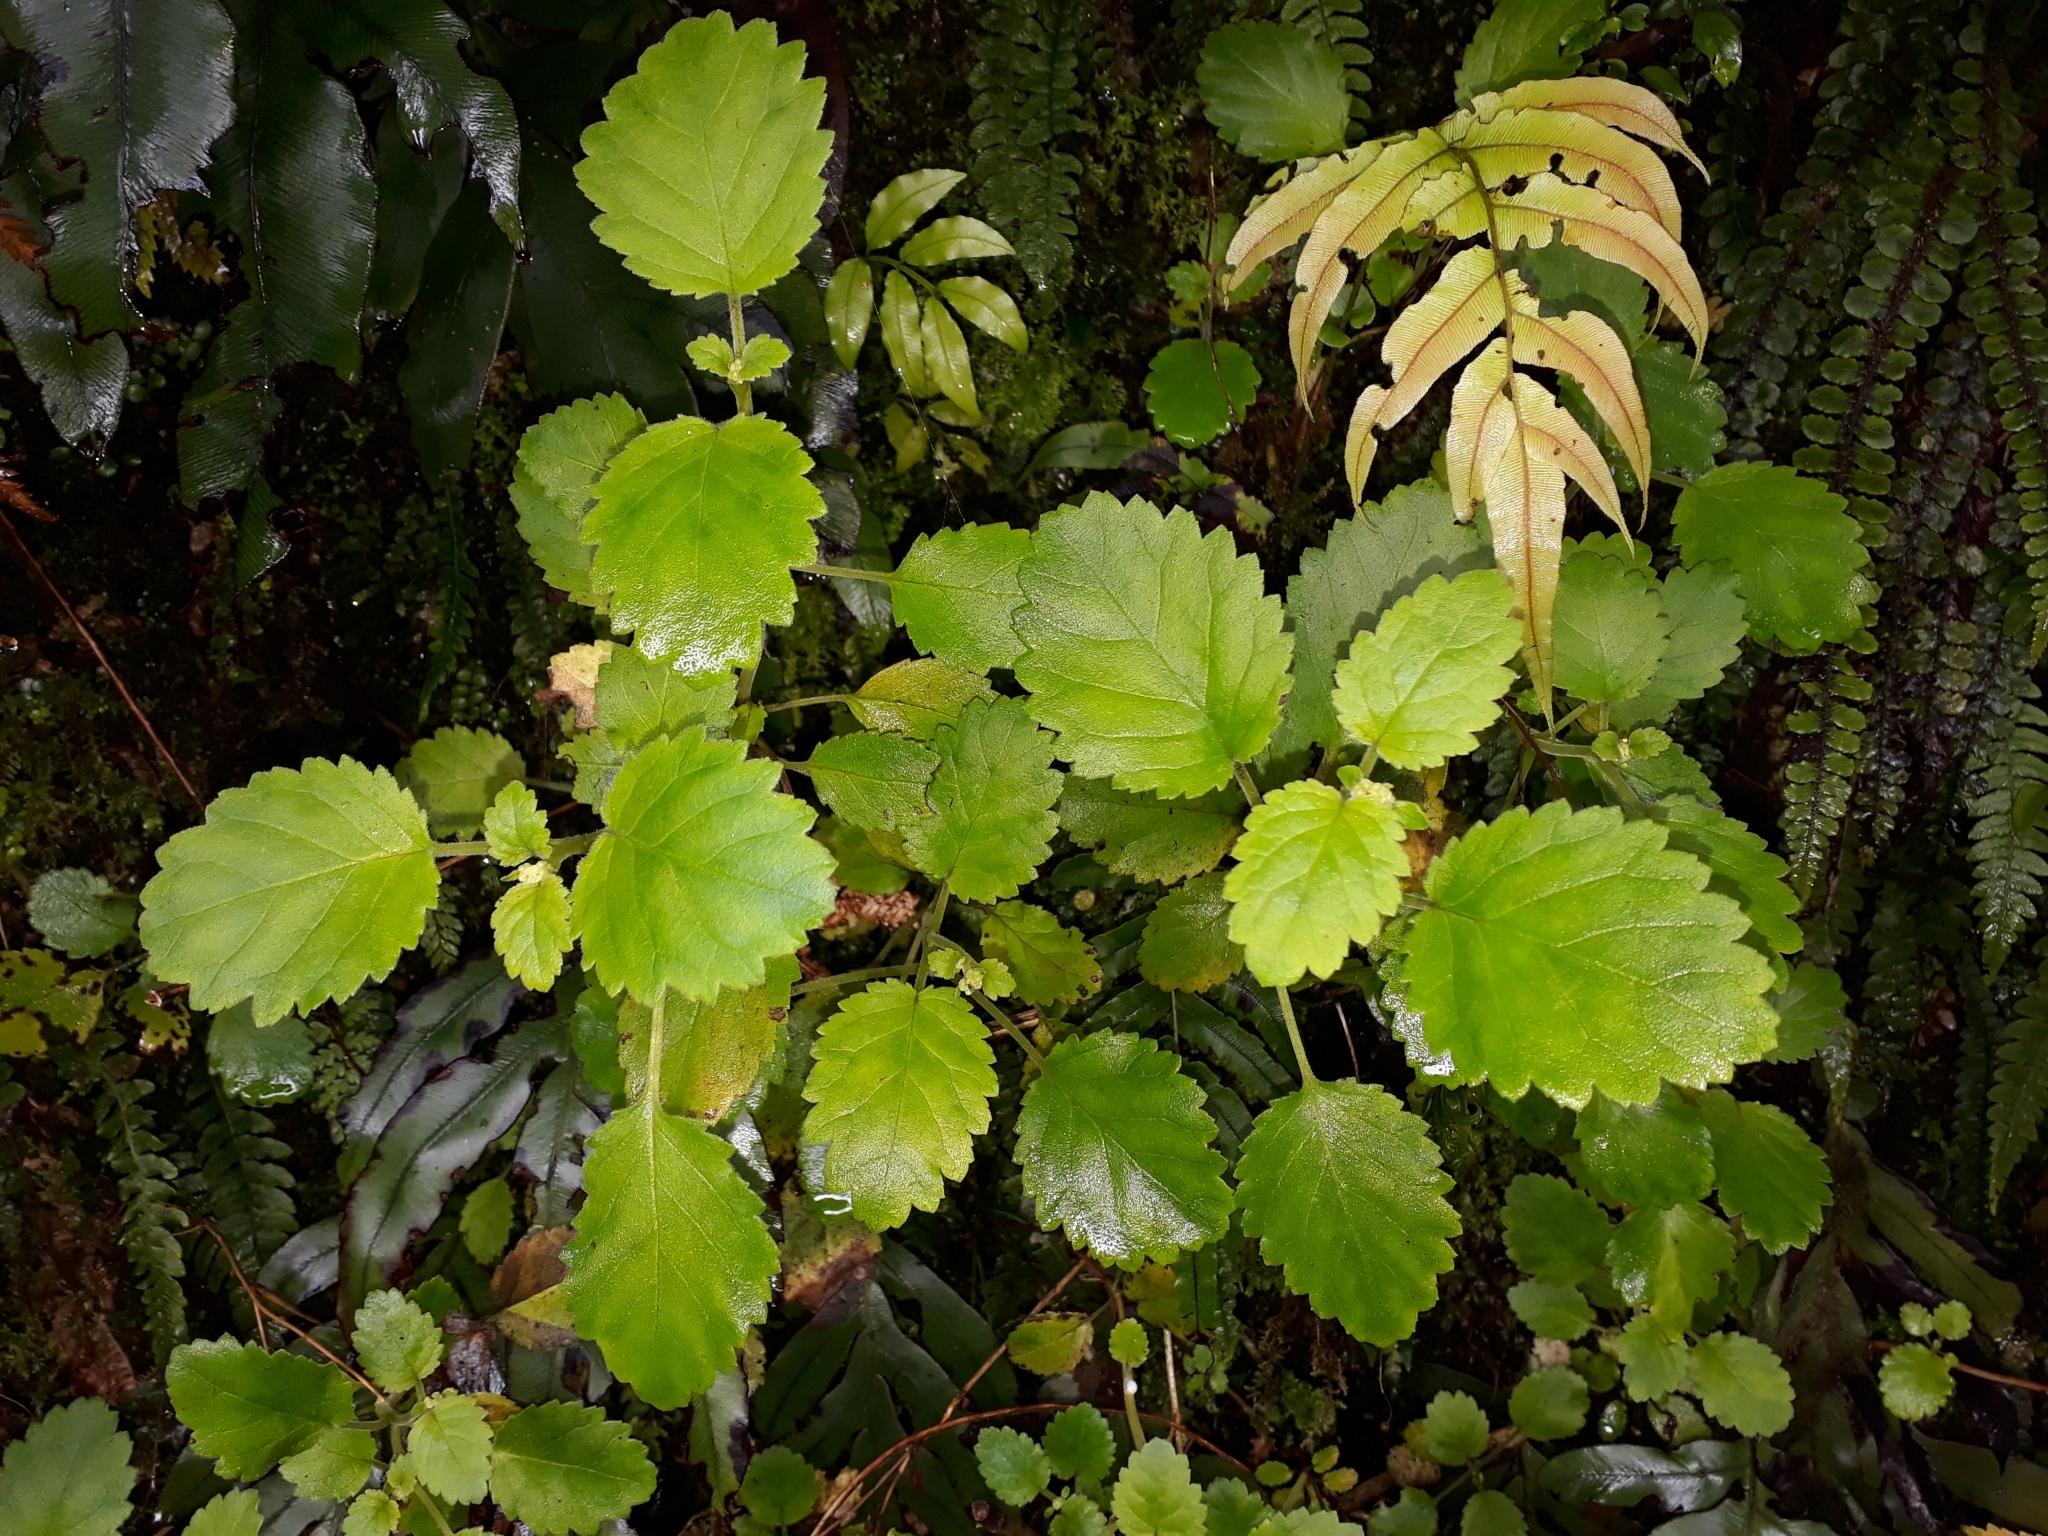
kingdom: Plantae
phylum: Tracheophyta
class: Magnoliopsida
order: Lamiales
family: Calceolariaceae
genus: Jovellana
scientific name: Jovellana sinclairii
